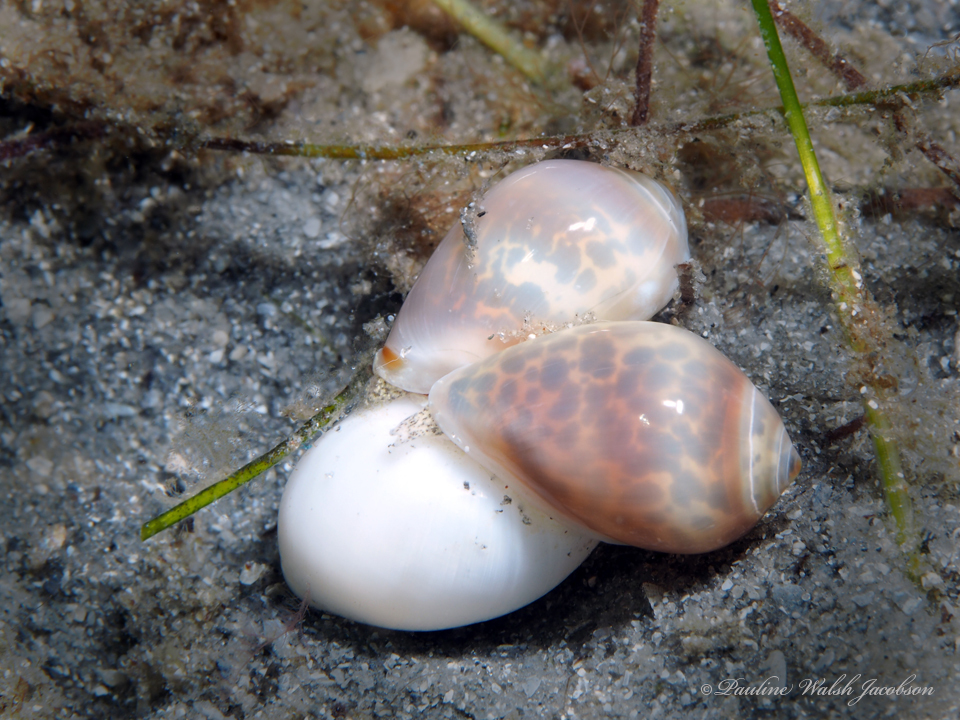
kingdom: Animalia
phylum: Mollusca
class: Gastropoda
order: Neogastropoda
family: Marginellidae
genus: Prunum
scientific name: Prunum apicinum
